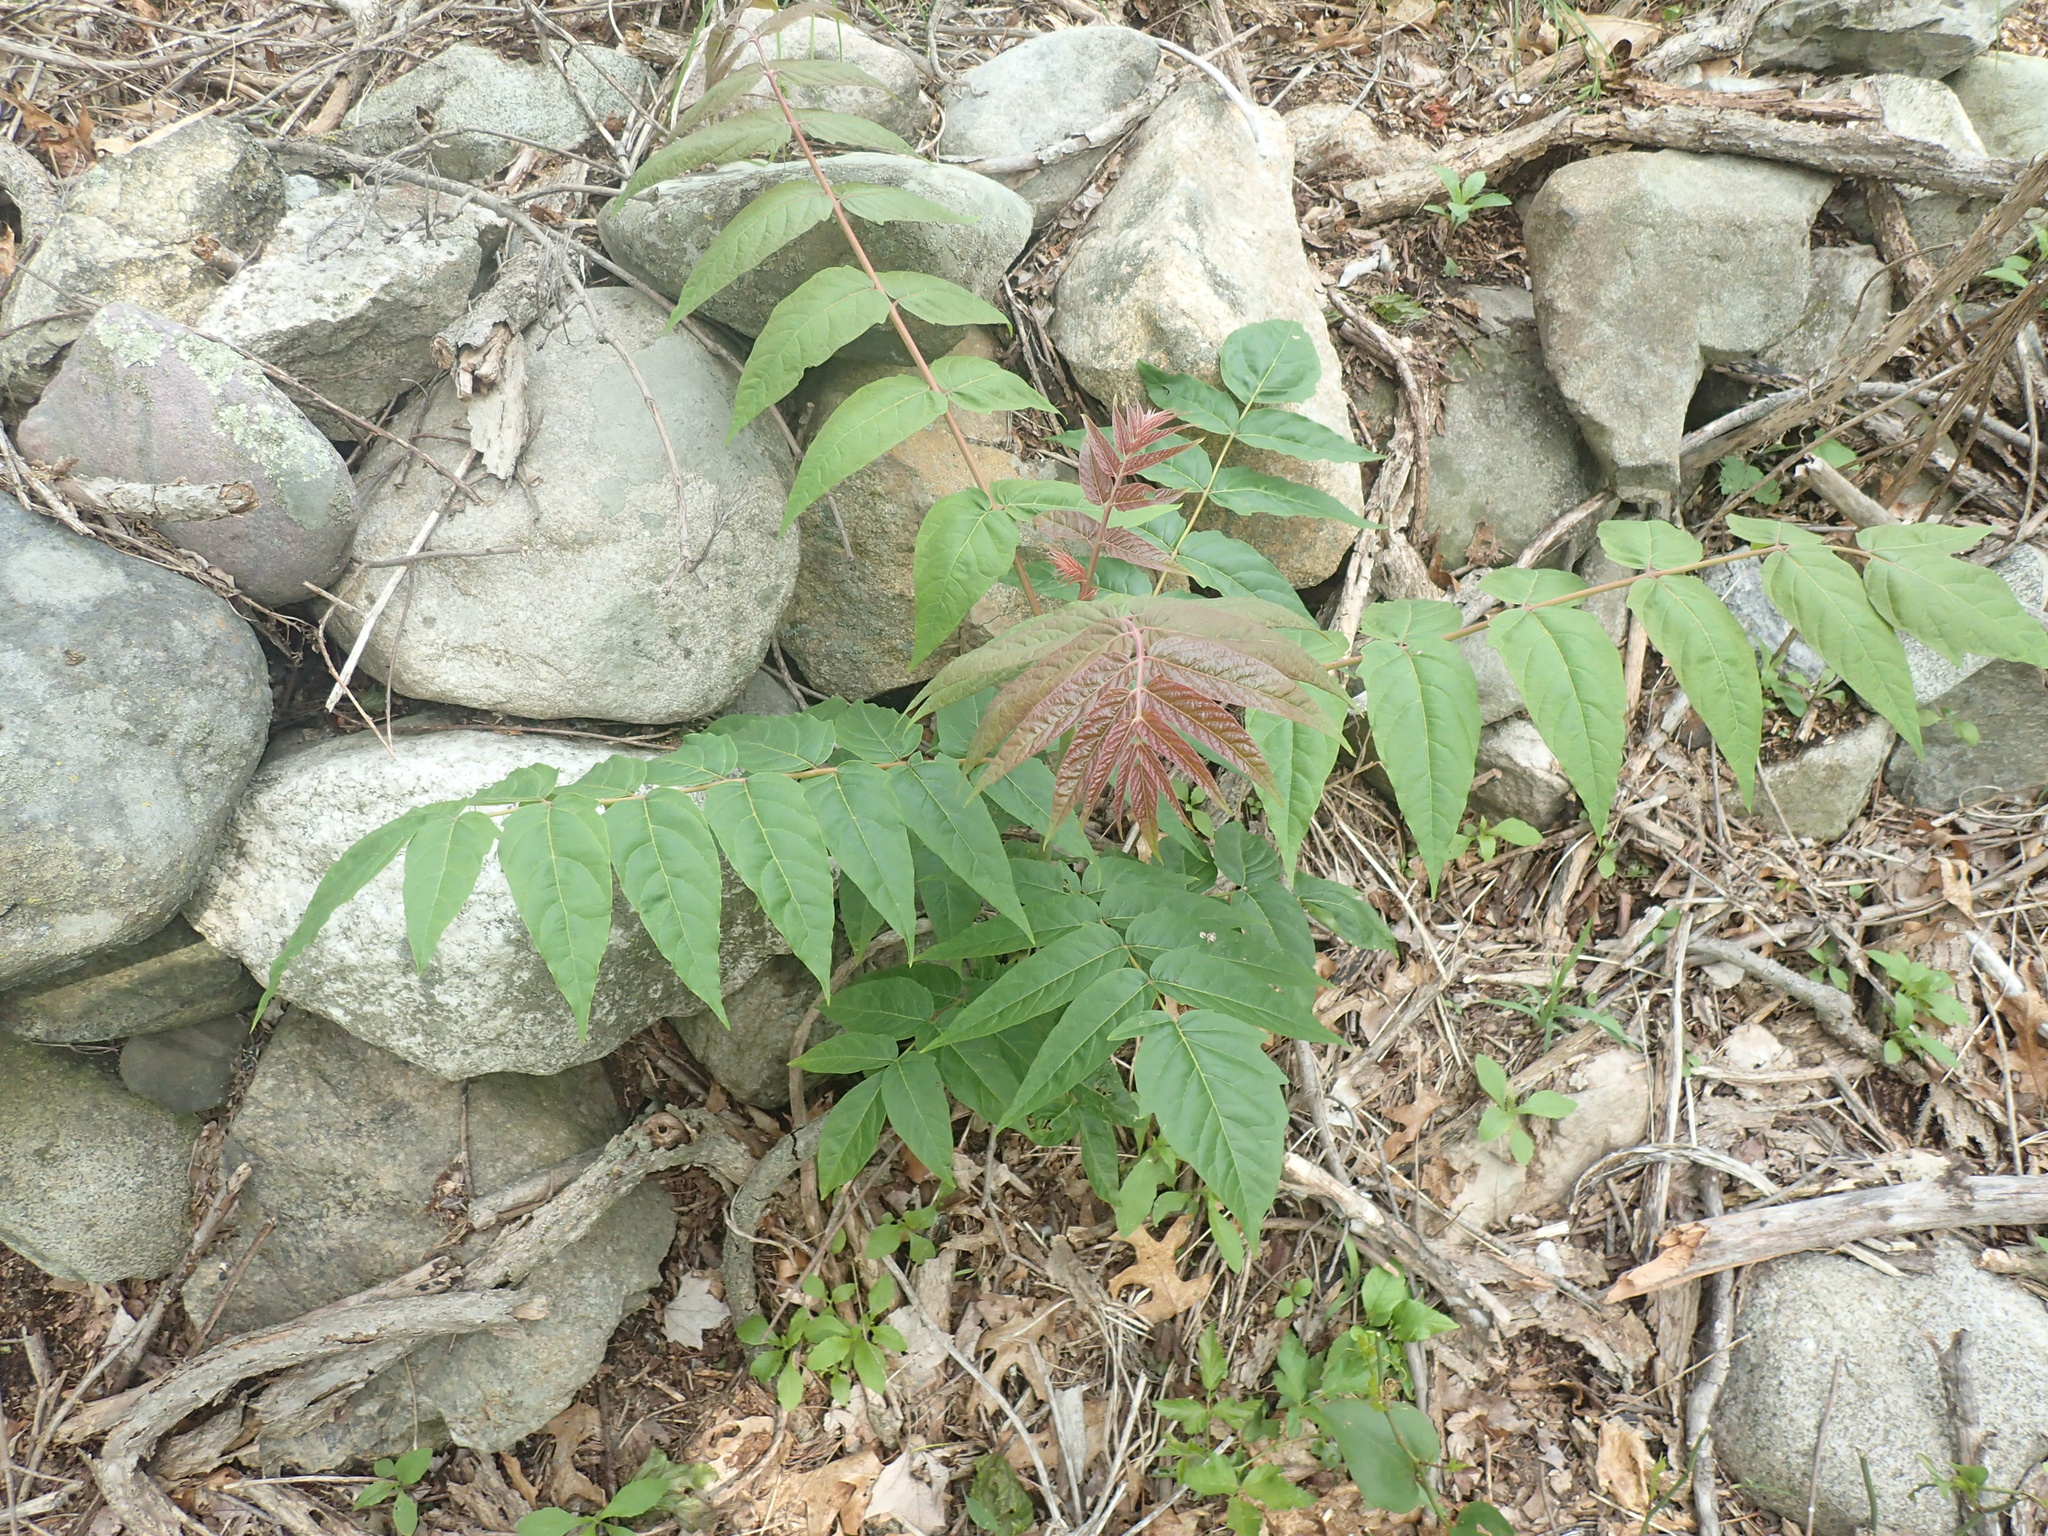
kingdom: Plantae
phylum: Tracheophyta
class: Magnoliopsida
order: Sapindales
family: Simaroubaceae
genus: Ailanthus
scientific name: Ailanthus altissima
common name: Tree-of-heaven
